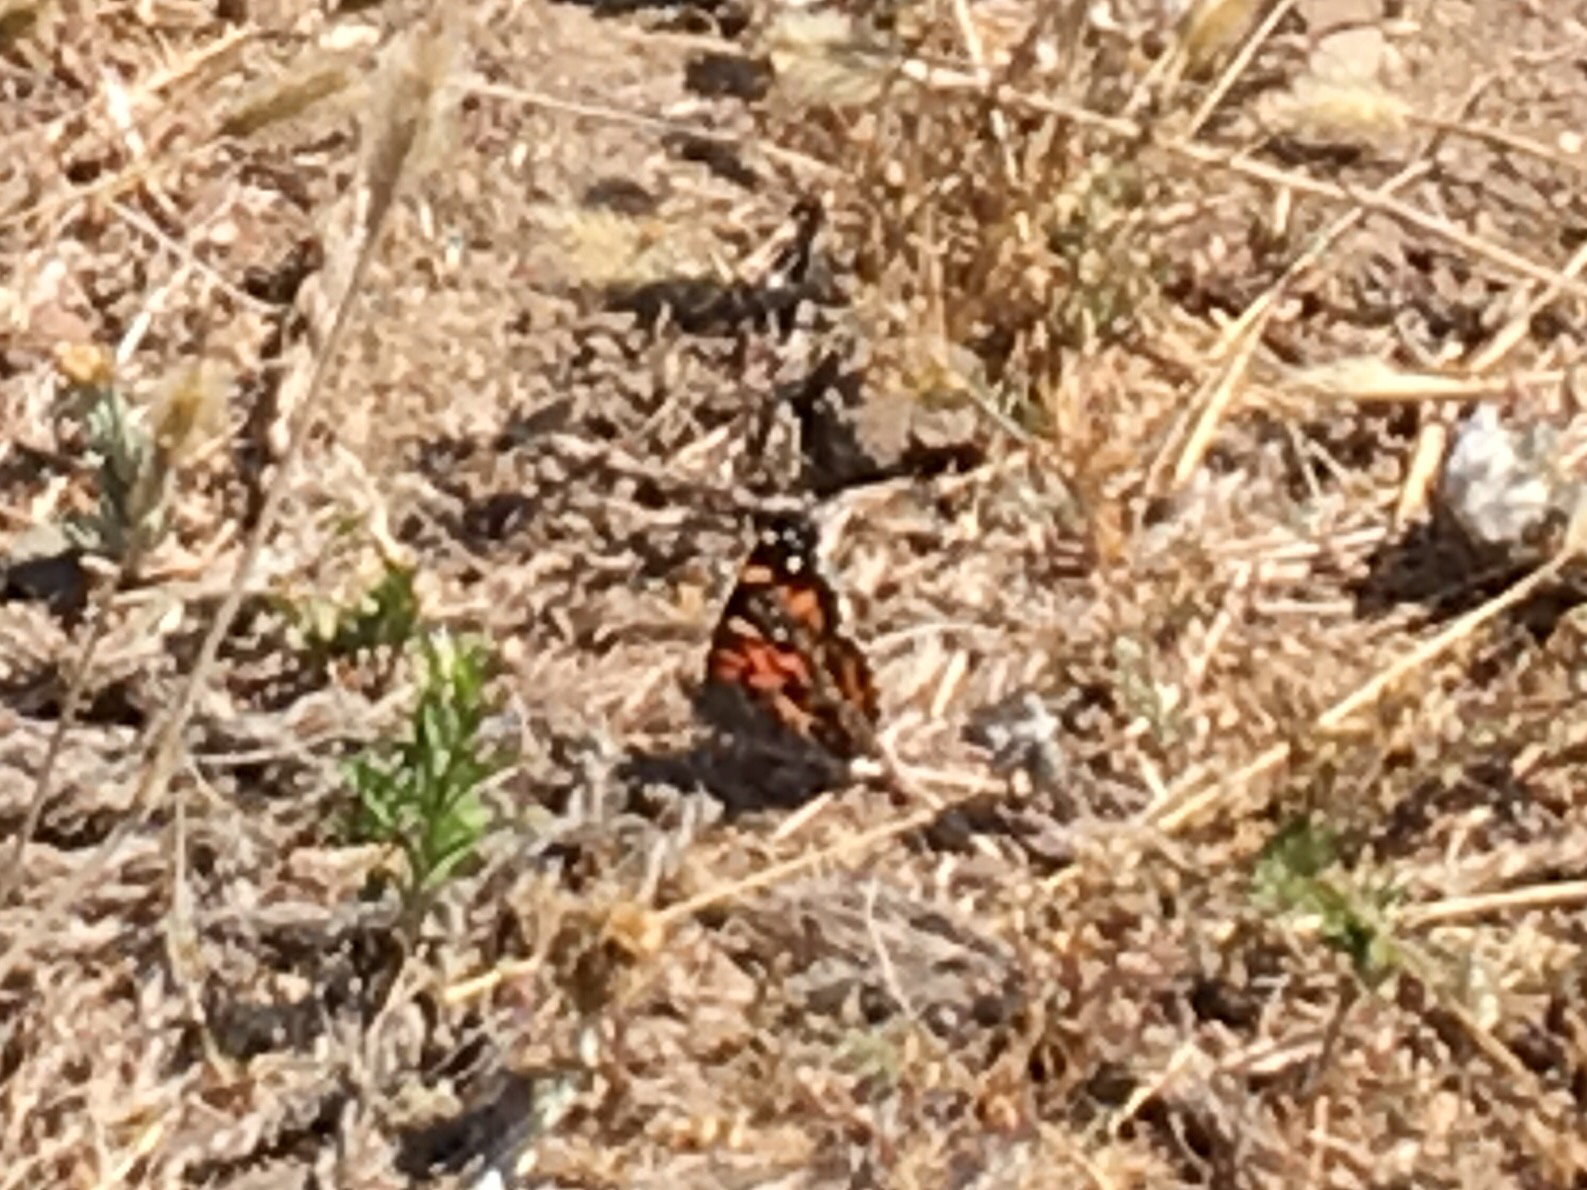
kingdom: Animalia
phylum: Arthropoda
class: Insecta
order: Lepidoptera
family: Nymphalidae
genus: Vanessa
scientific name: Vanessa virginiensis
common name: American lady
